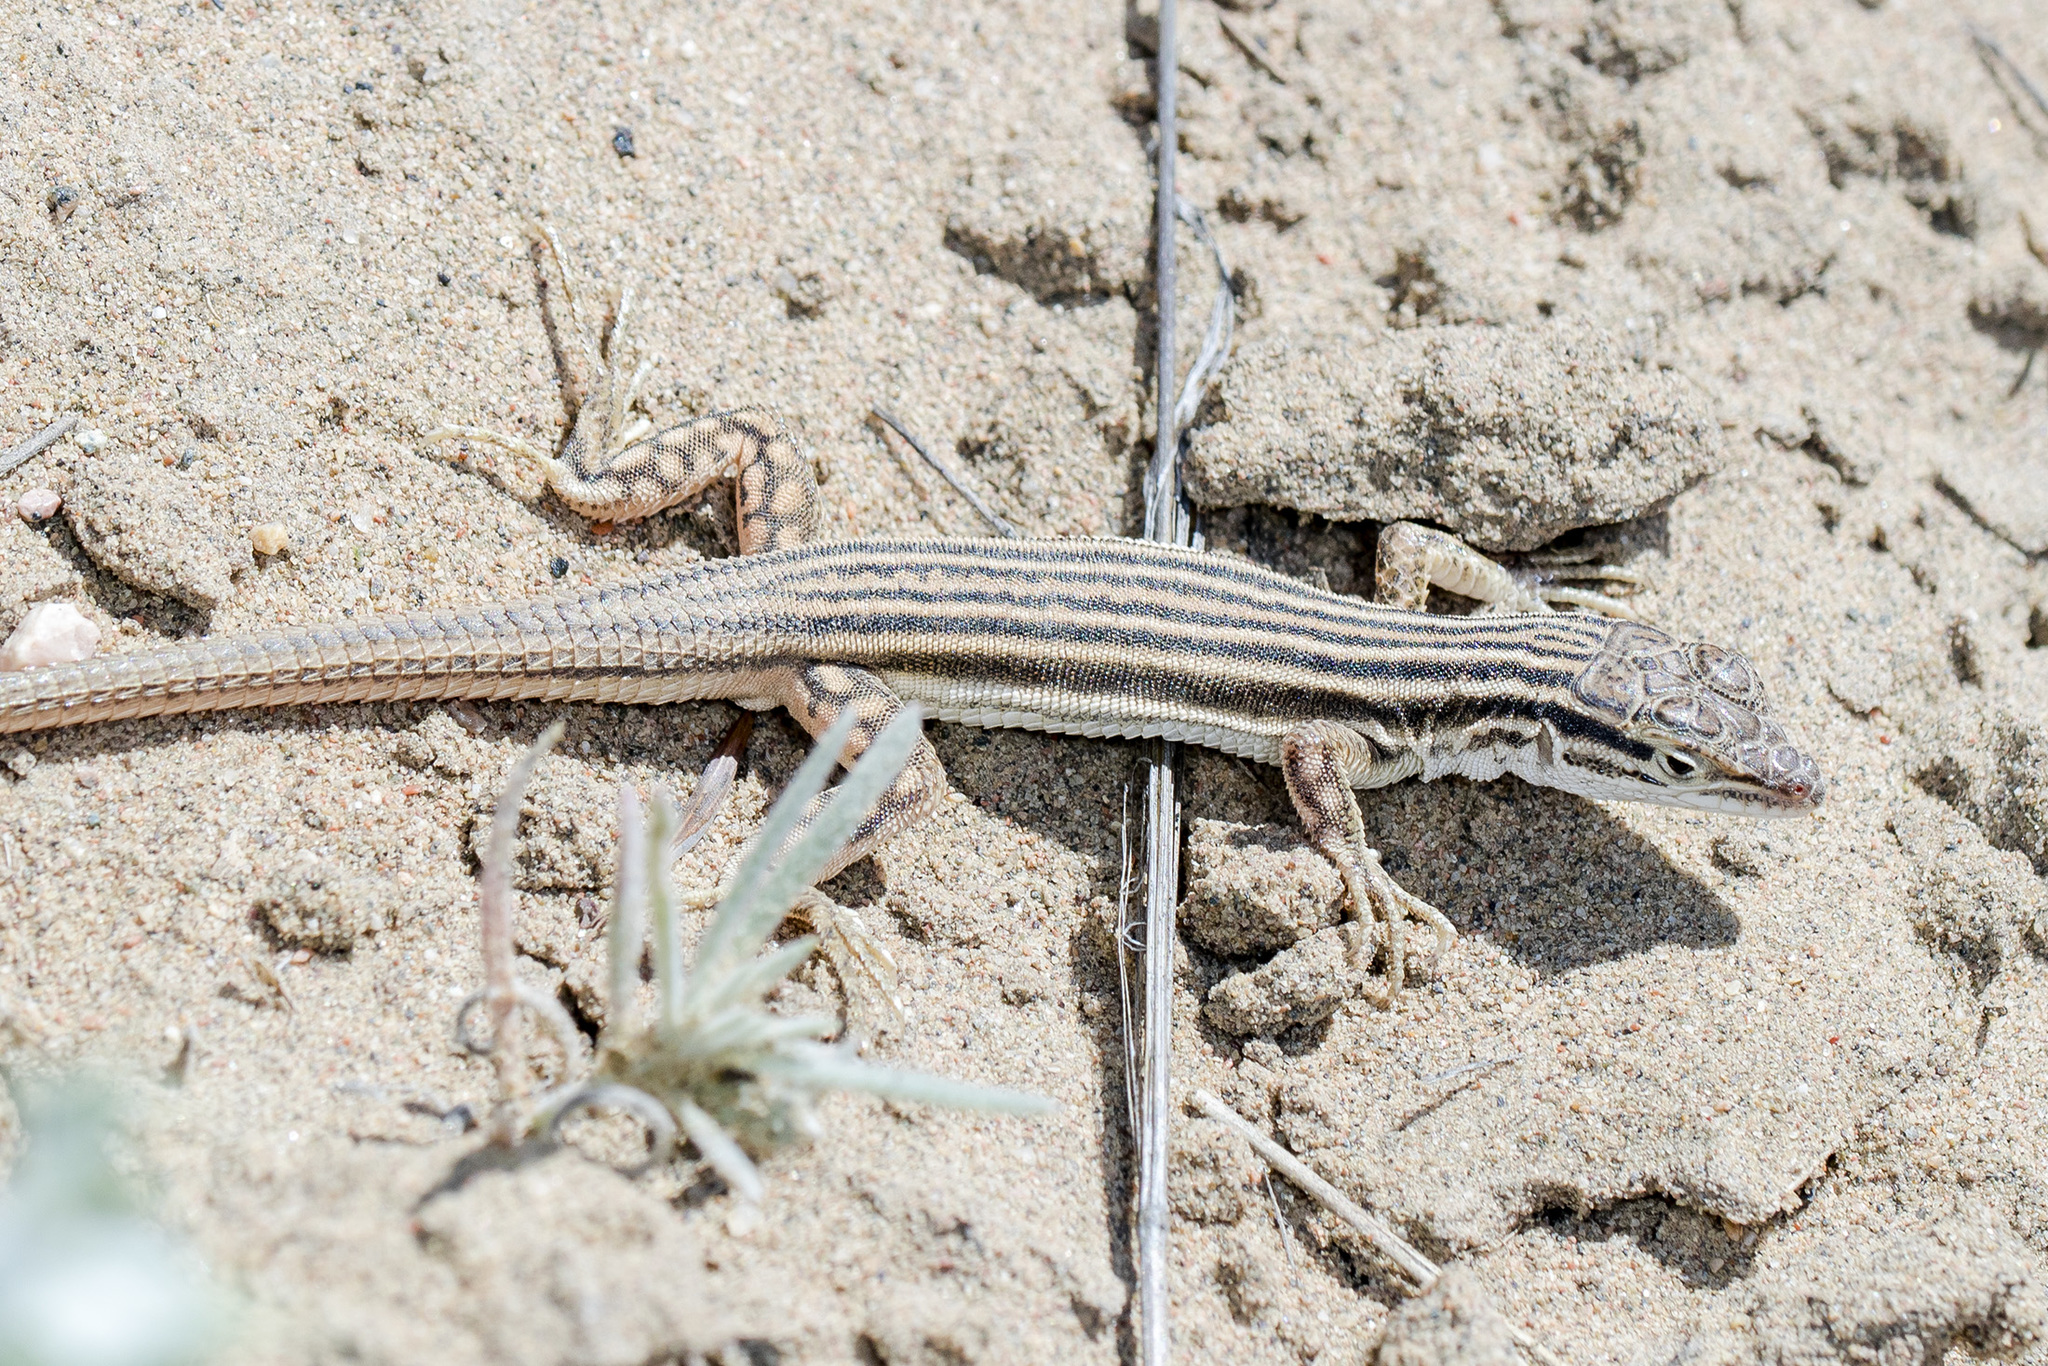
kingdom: Animalia
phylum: Chordata
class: Squamata
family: Lacertidae
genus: Eremias
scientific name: Eremias lineolata
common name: Striped racerunner
